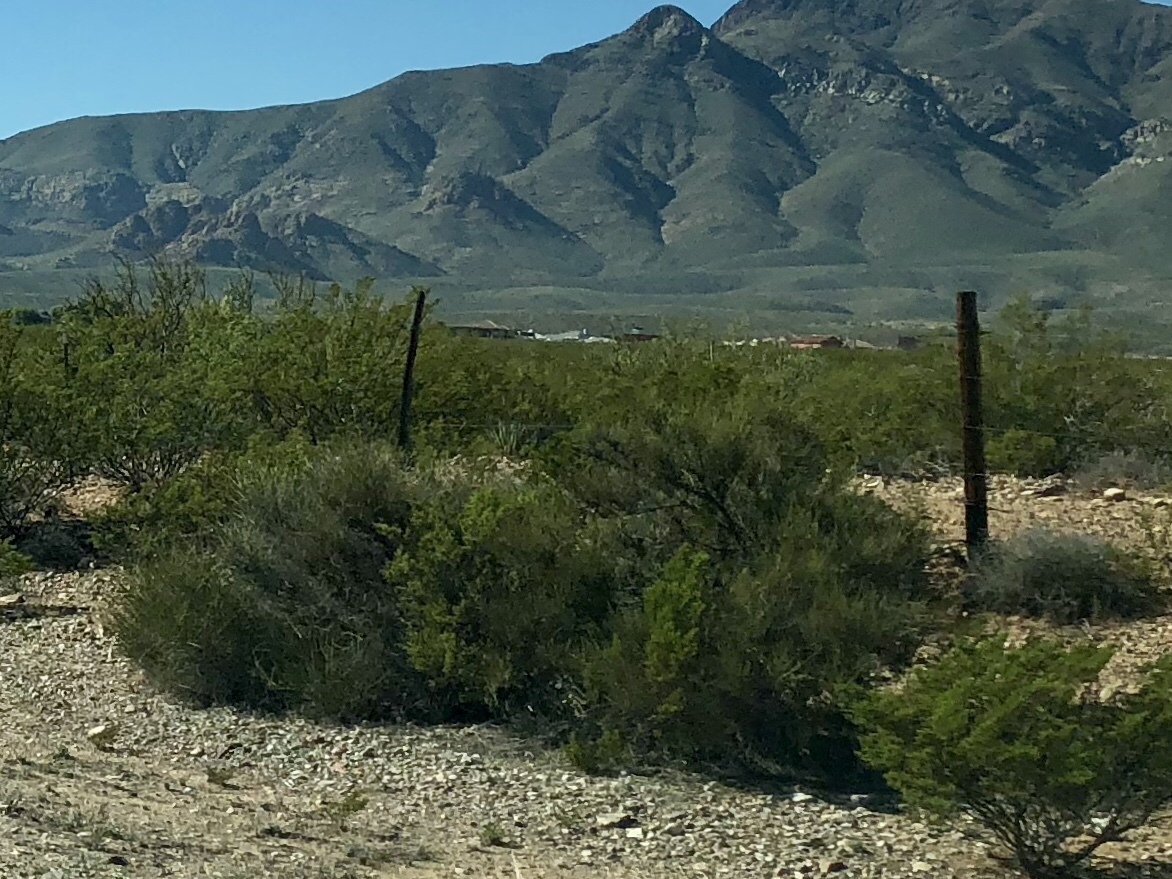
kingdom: Plantae
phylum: Tracheophyta
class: Magnoliopsida
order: Zygophyllales
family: Zygophyllaceae
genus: Larrea
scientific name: Larrea tridentata
